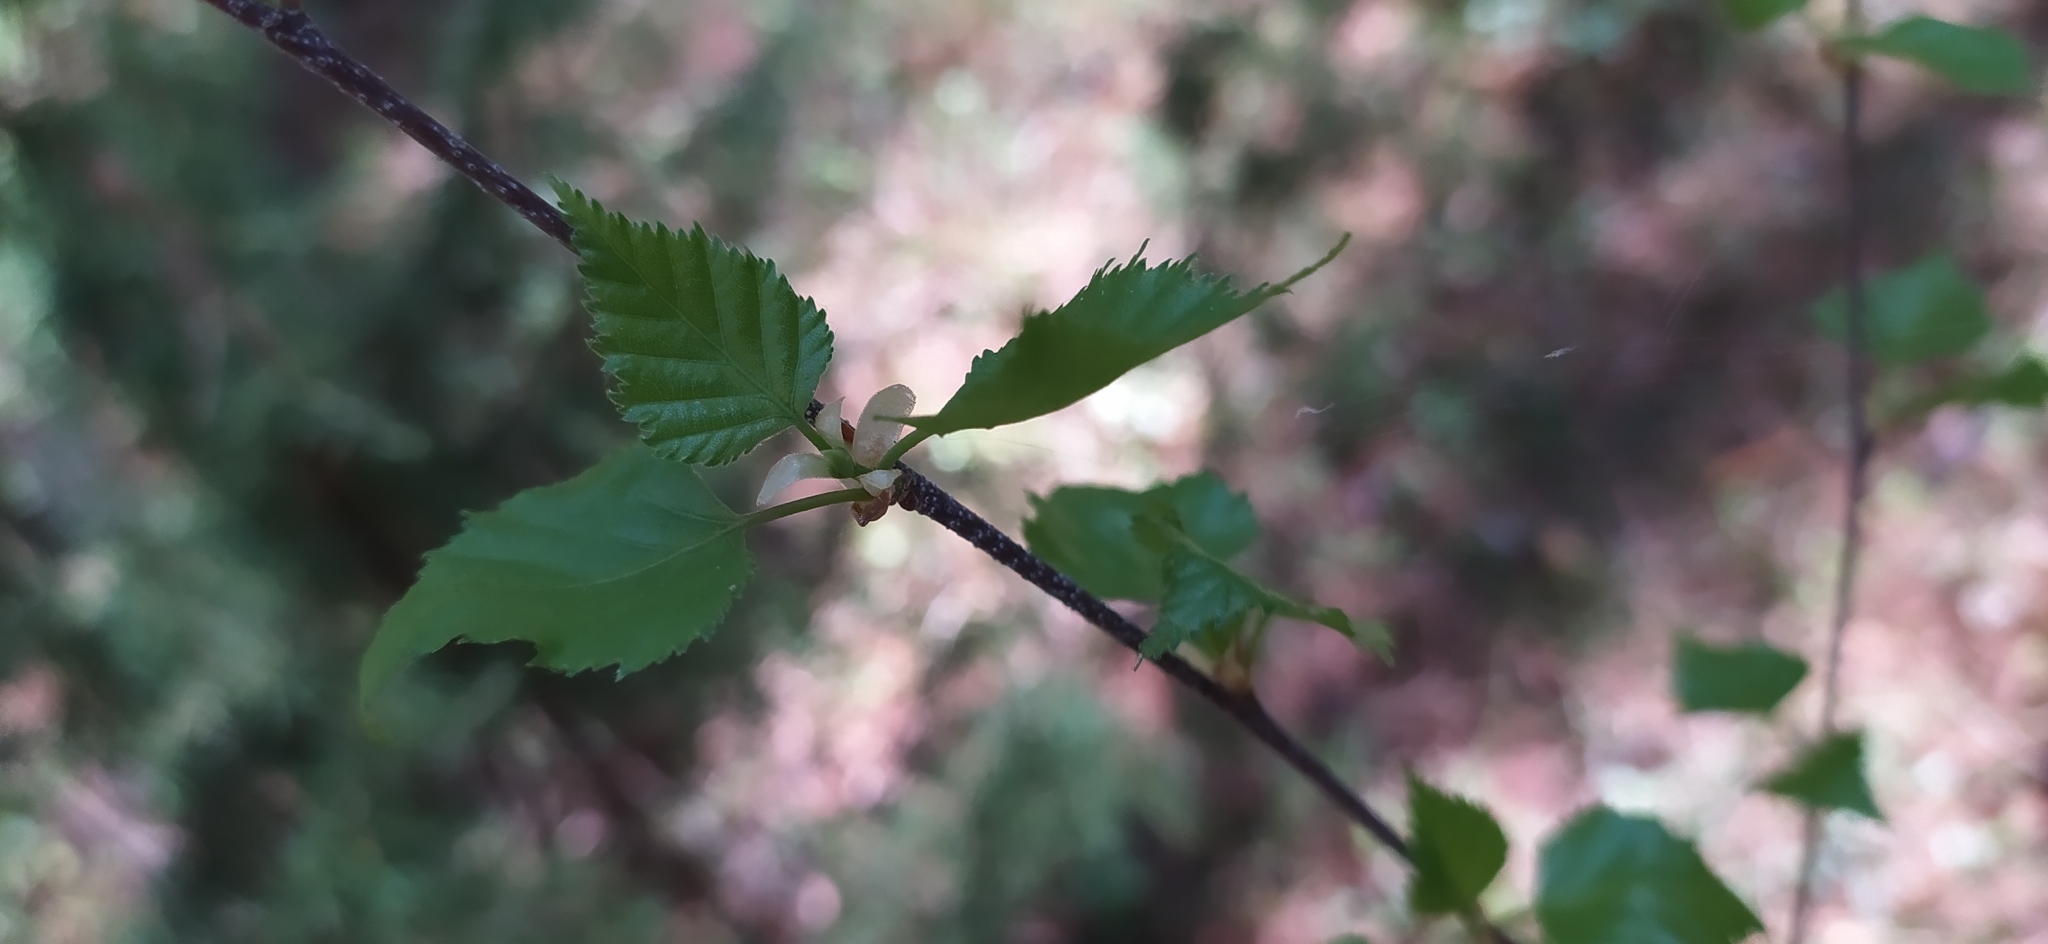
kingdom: Plantae
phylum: Tracheophyta
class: Magnoliopsida
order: Fagales
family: Betulaceae
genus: Betula
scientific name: Betula pendula
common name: Silver birch
